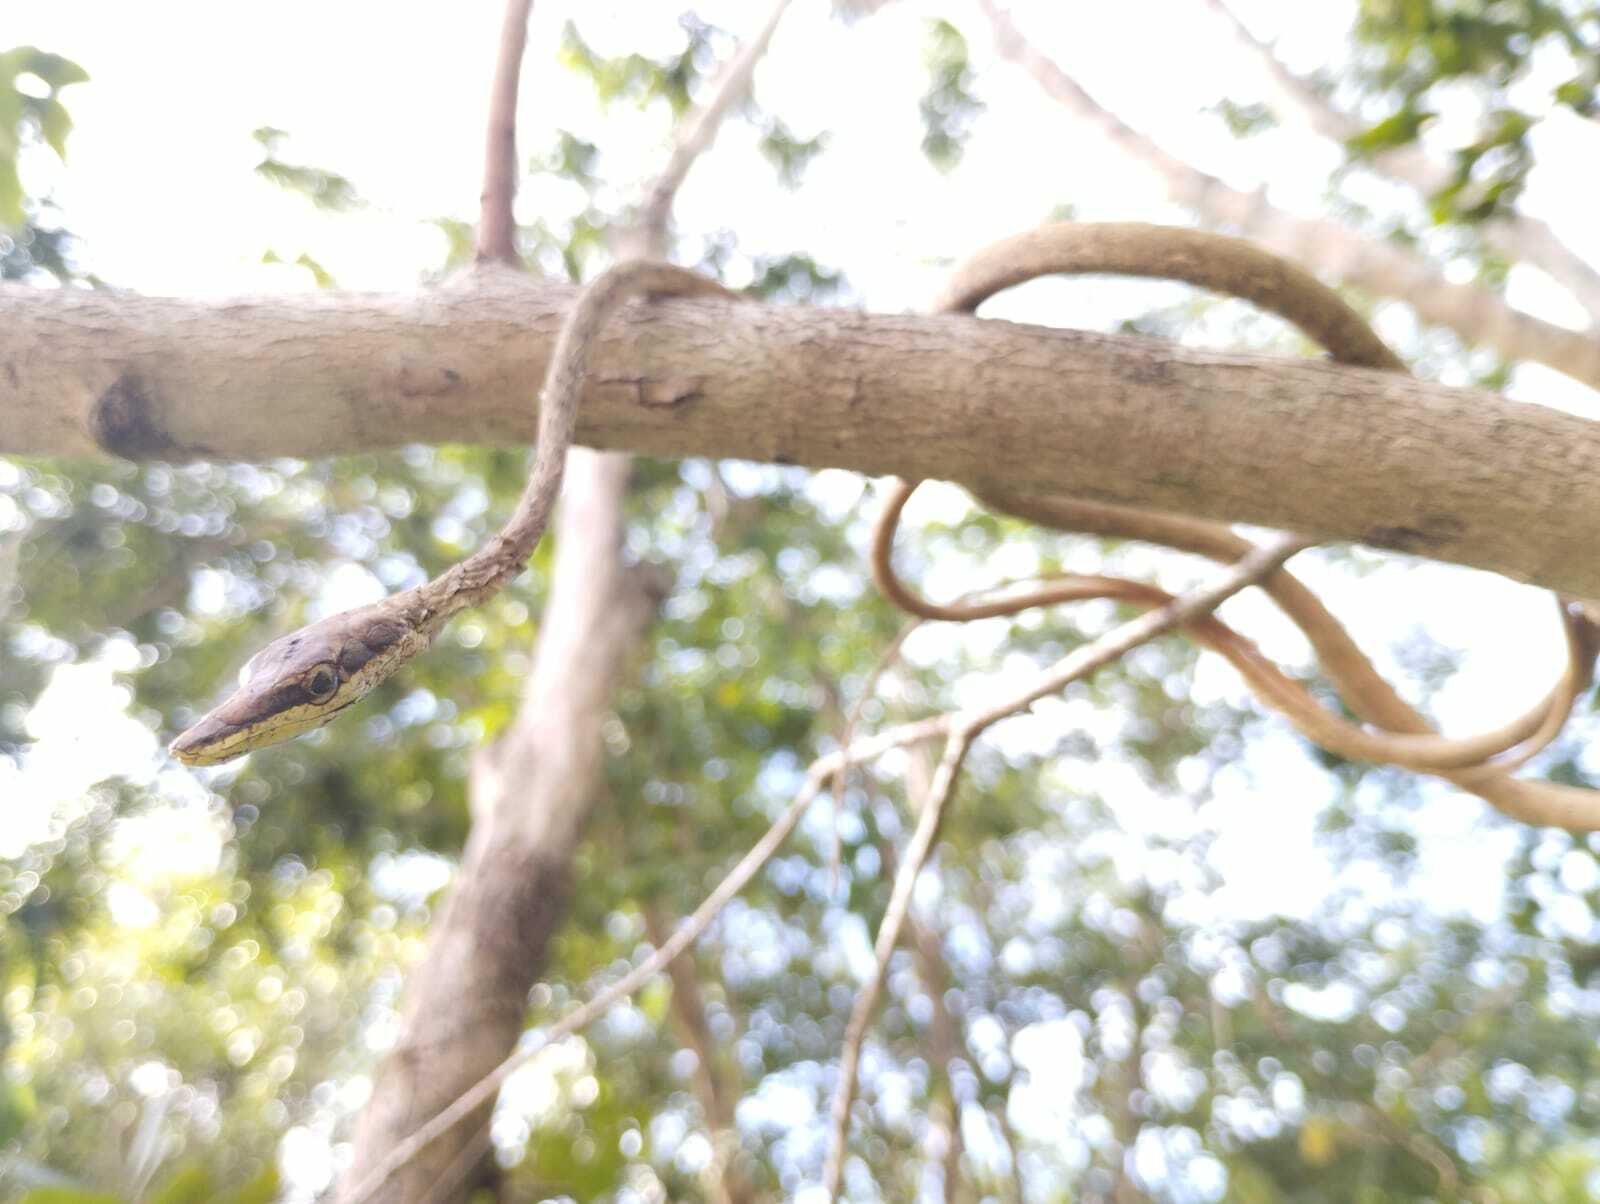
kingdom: Animalia
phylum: Chordata
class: Squamata
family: Colubridae
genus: Oxybelis
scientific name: Oxybelis potosiensis
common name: Gulf coast vine snake
